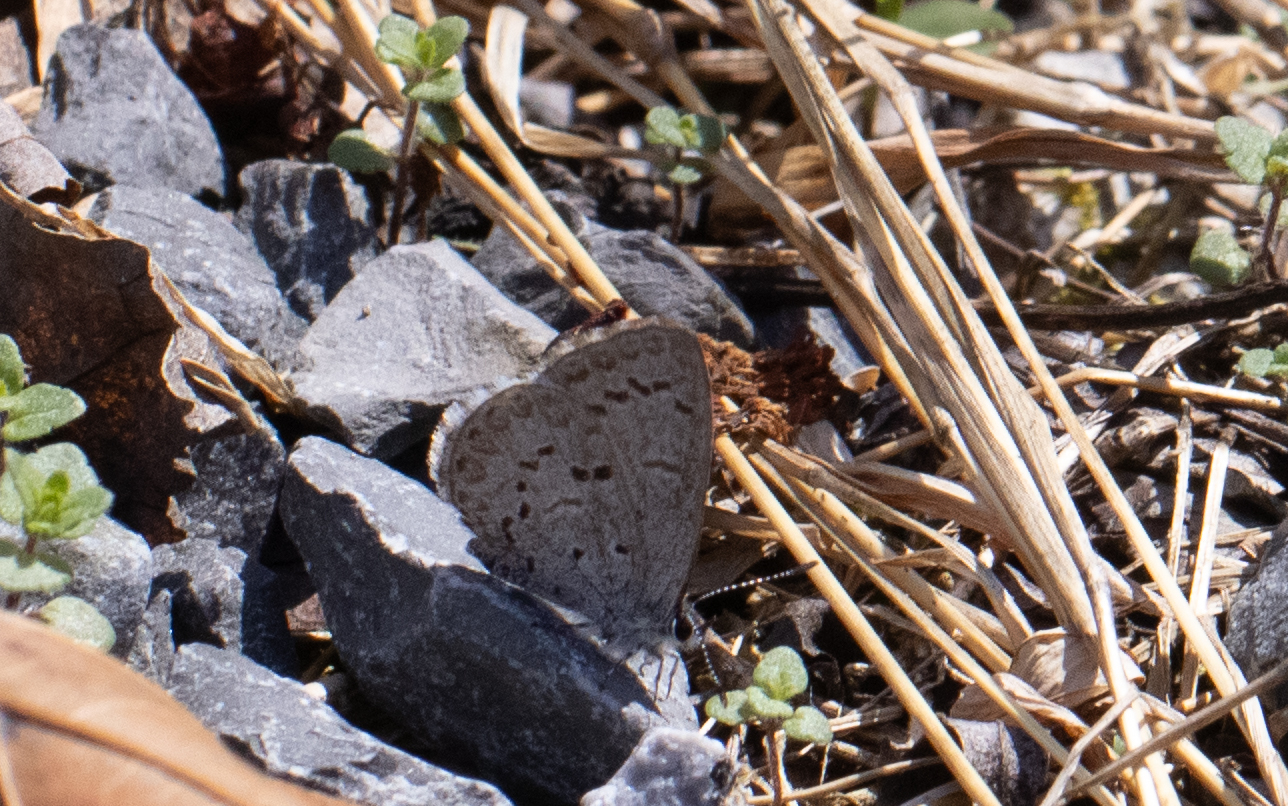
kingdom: Animalia
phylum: Arthropoda
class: Insecta
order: Lepidoptera
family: Lycaenidae
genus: Celastrina
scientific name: Celastrina lucia
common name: Lucia azure
